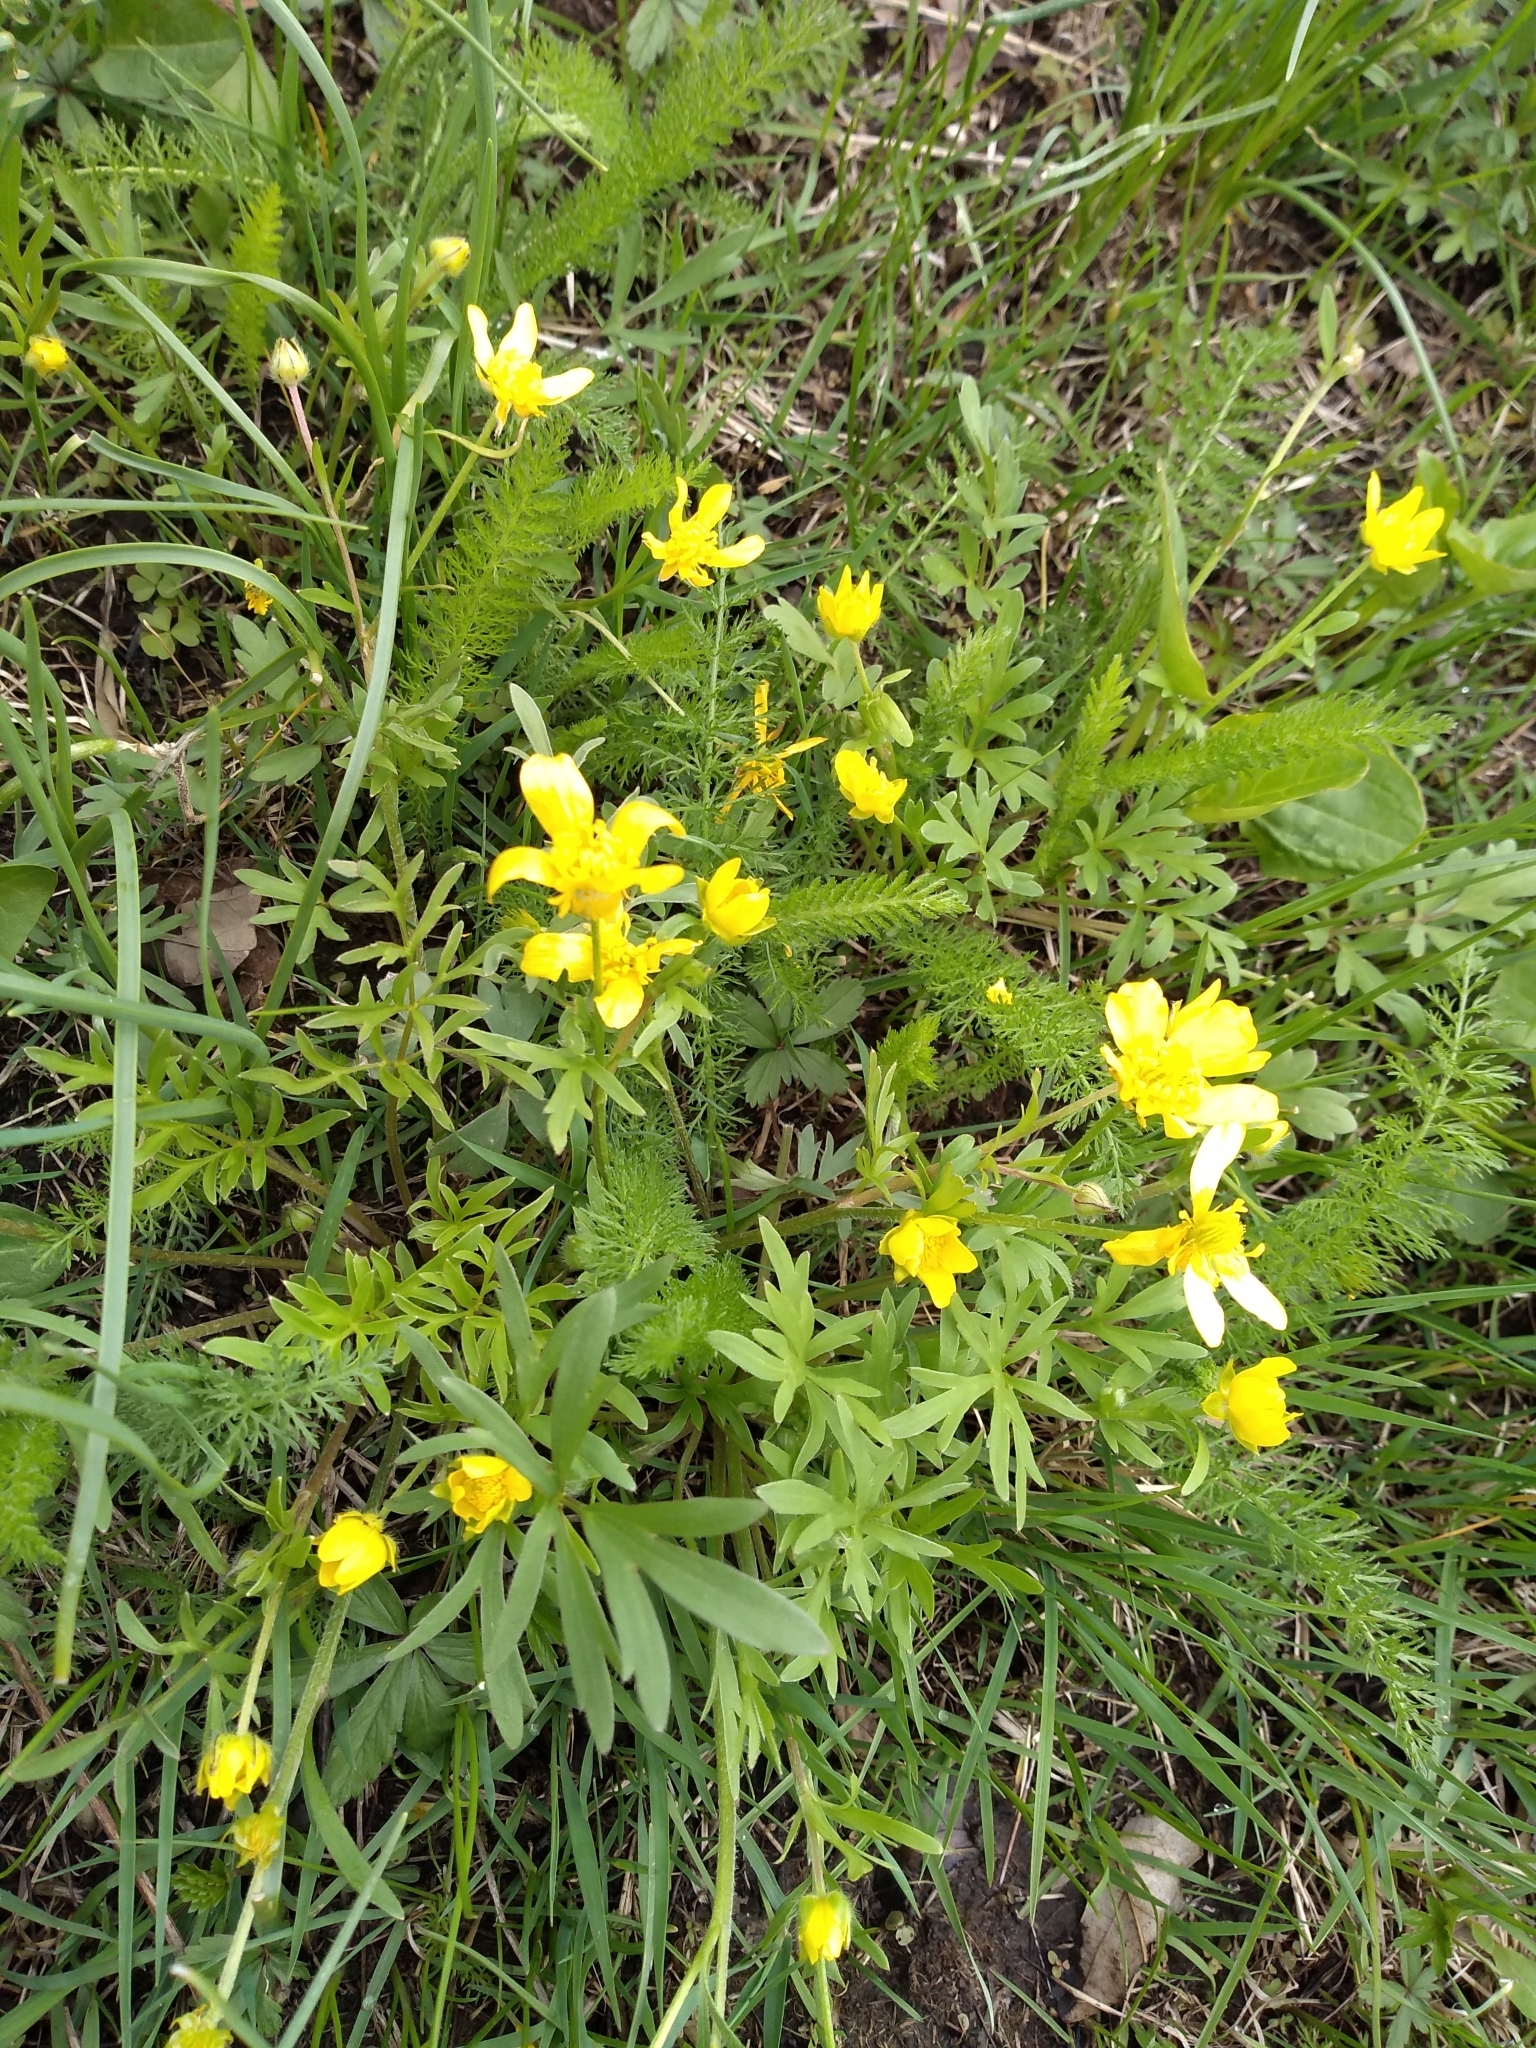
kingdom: Plantae
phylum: Tracheophyta
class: Magnoliopsida
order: Ranunculales
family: Ranunculaceae
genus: Ranunculus
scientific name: Ranunculus fascicularis
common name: Early buttercup
